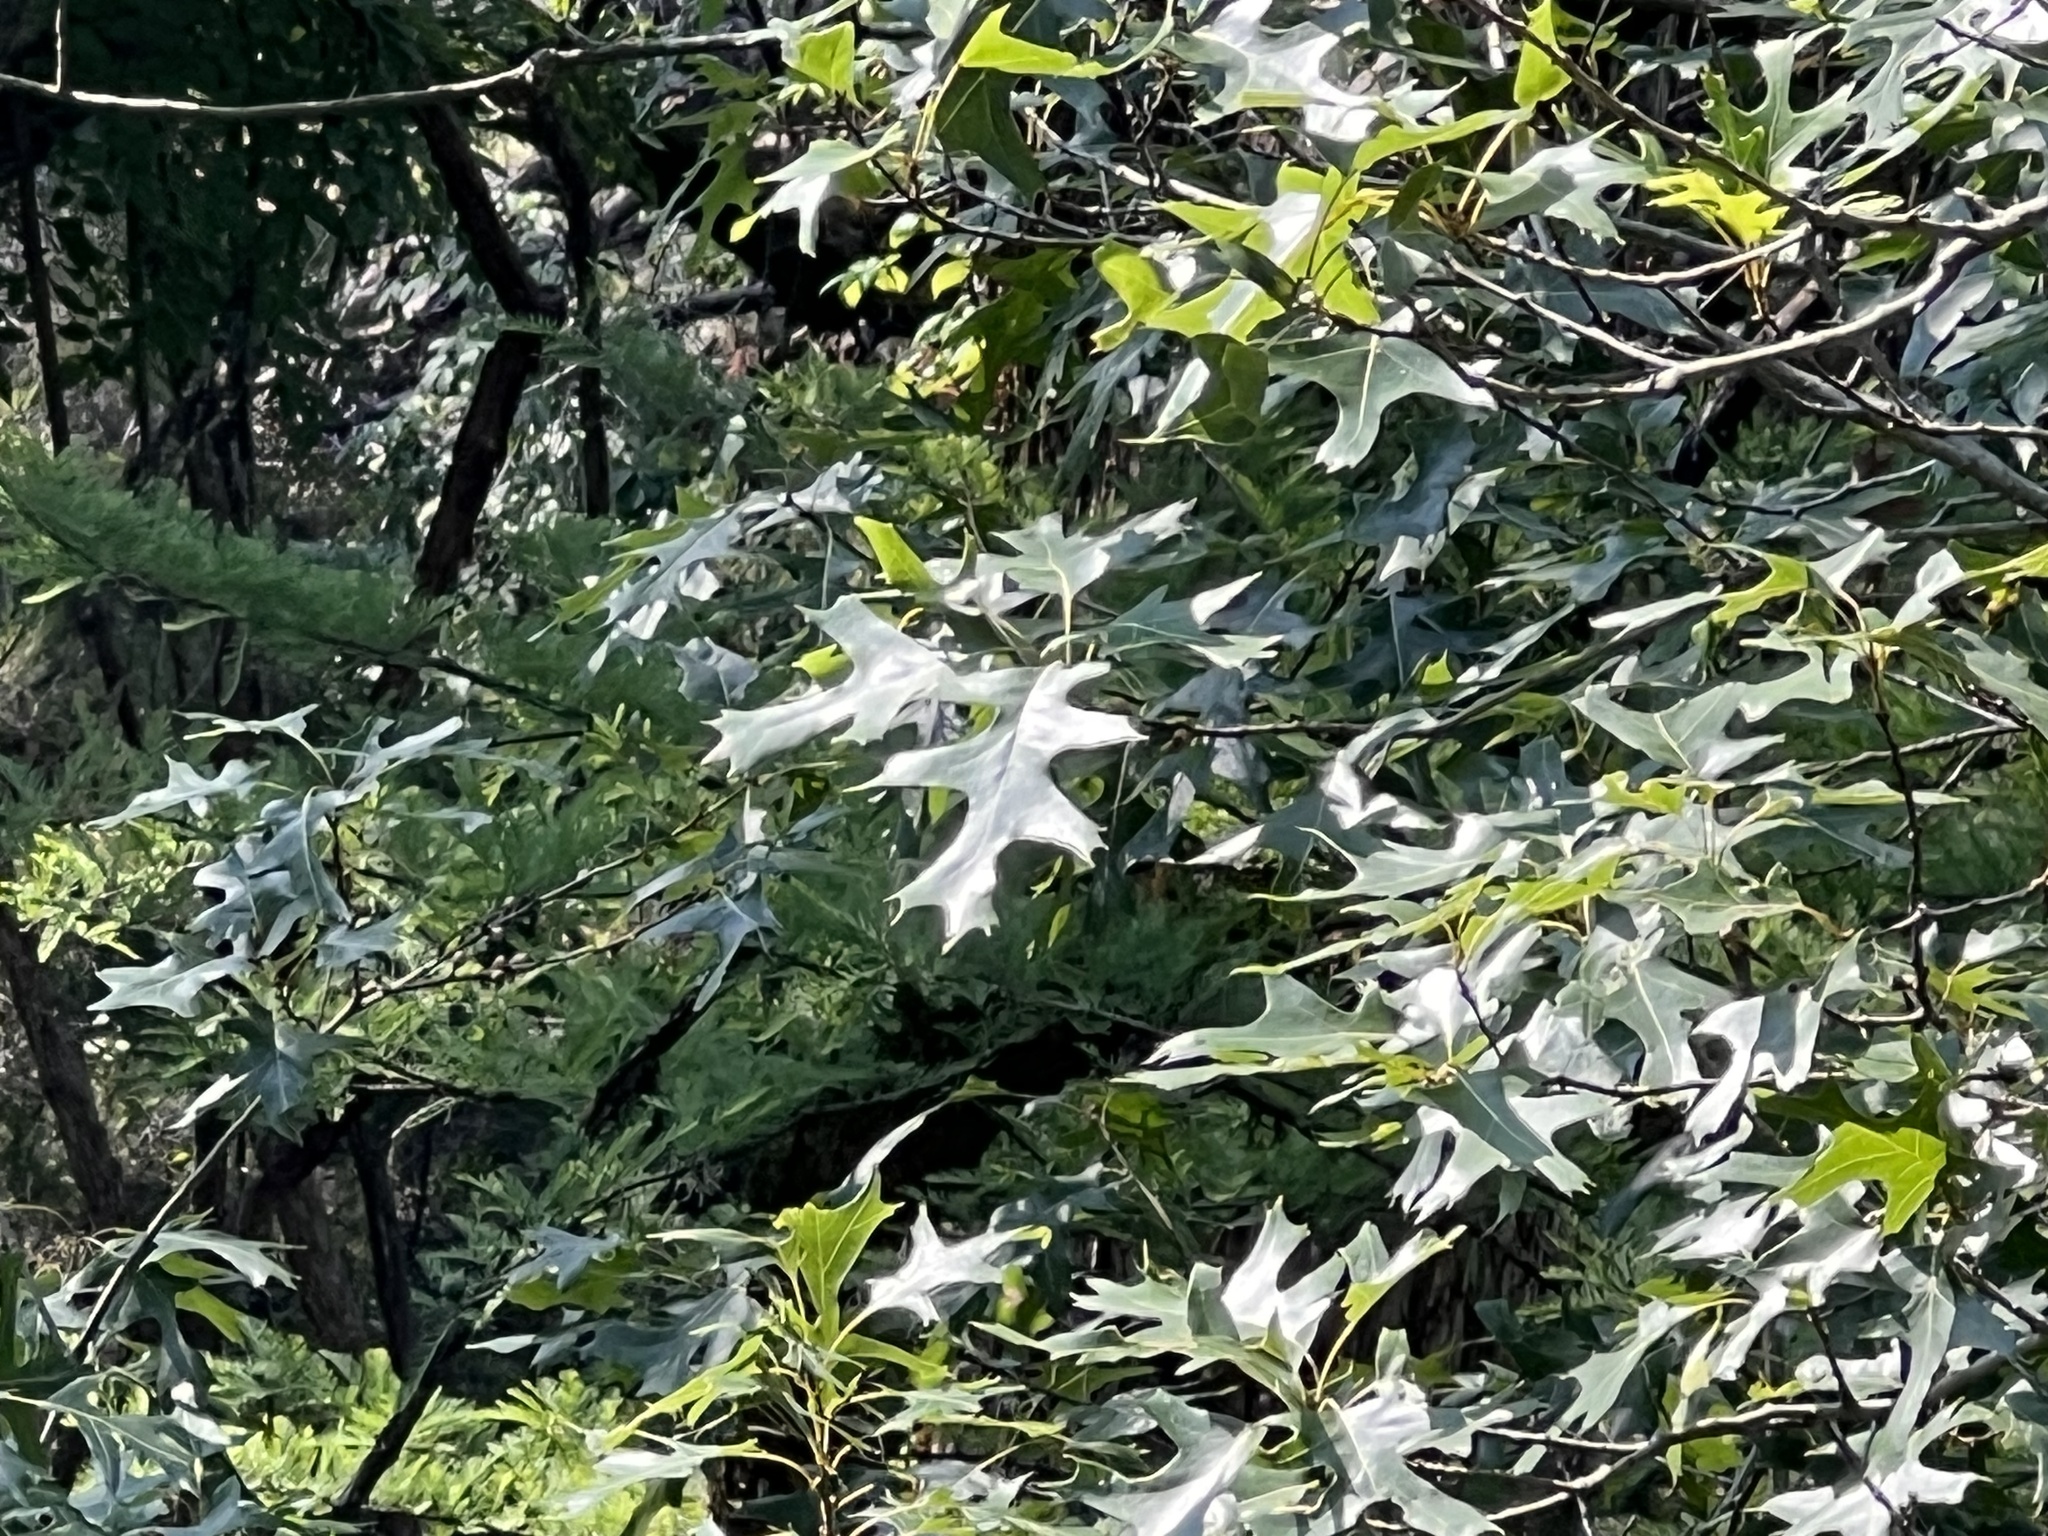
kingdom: Plantae
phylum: Tracheophyta
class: Magnoliopsida
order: Fagales
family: Fagaceae
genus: Quercus
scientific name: Quercus buckleyi
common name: Buckley oak
